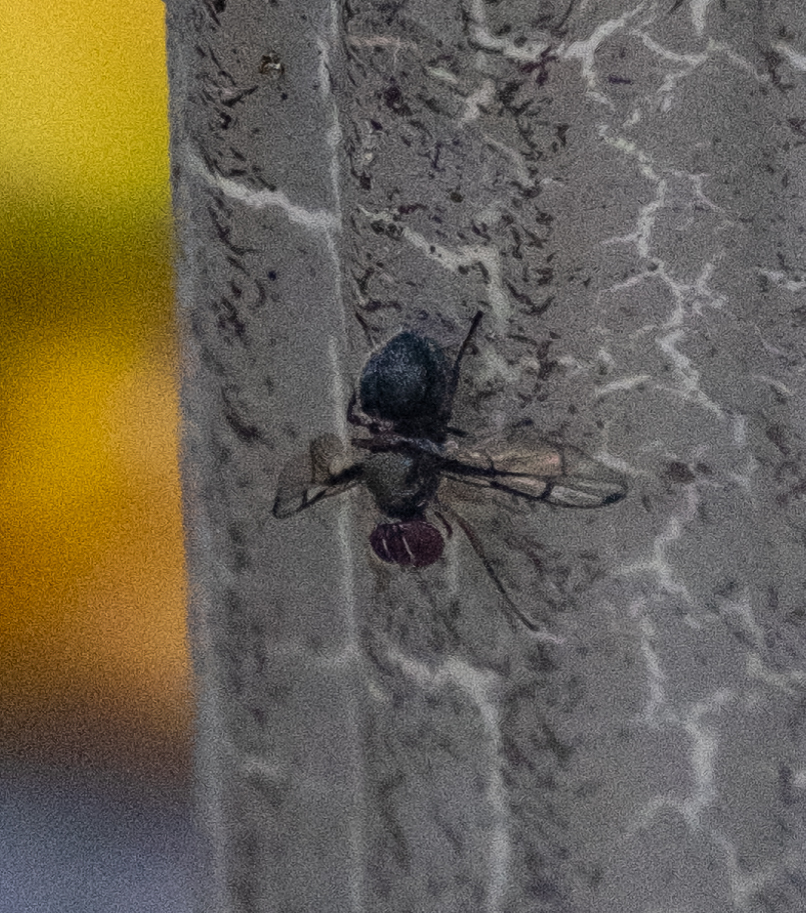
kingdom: Animalia
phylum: Arthropoda
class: Insecta
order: Diptera
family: Platystomatidae
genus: Pogonortalis
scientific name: Pogonortalis doclea
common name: Boatman fly
